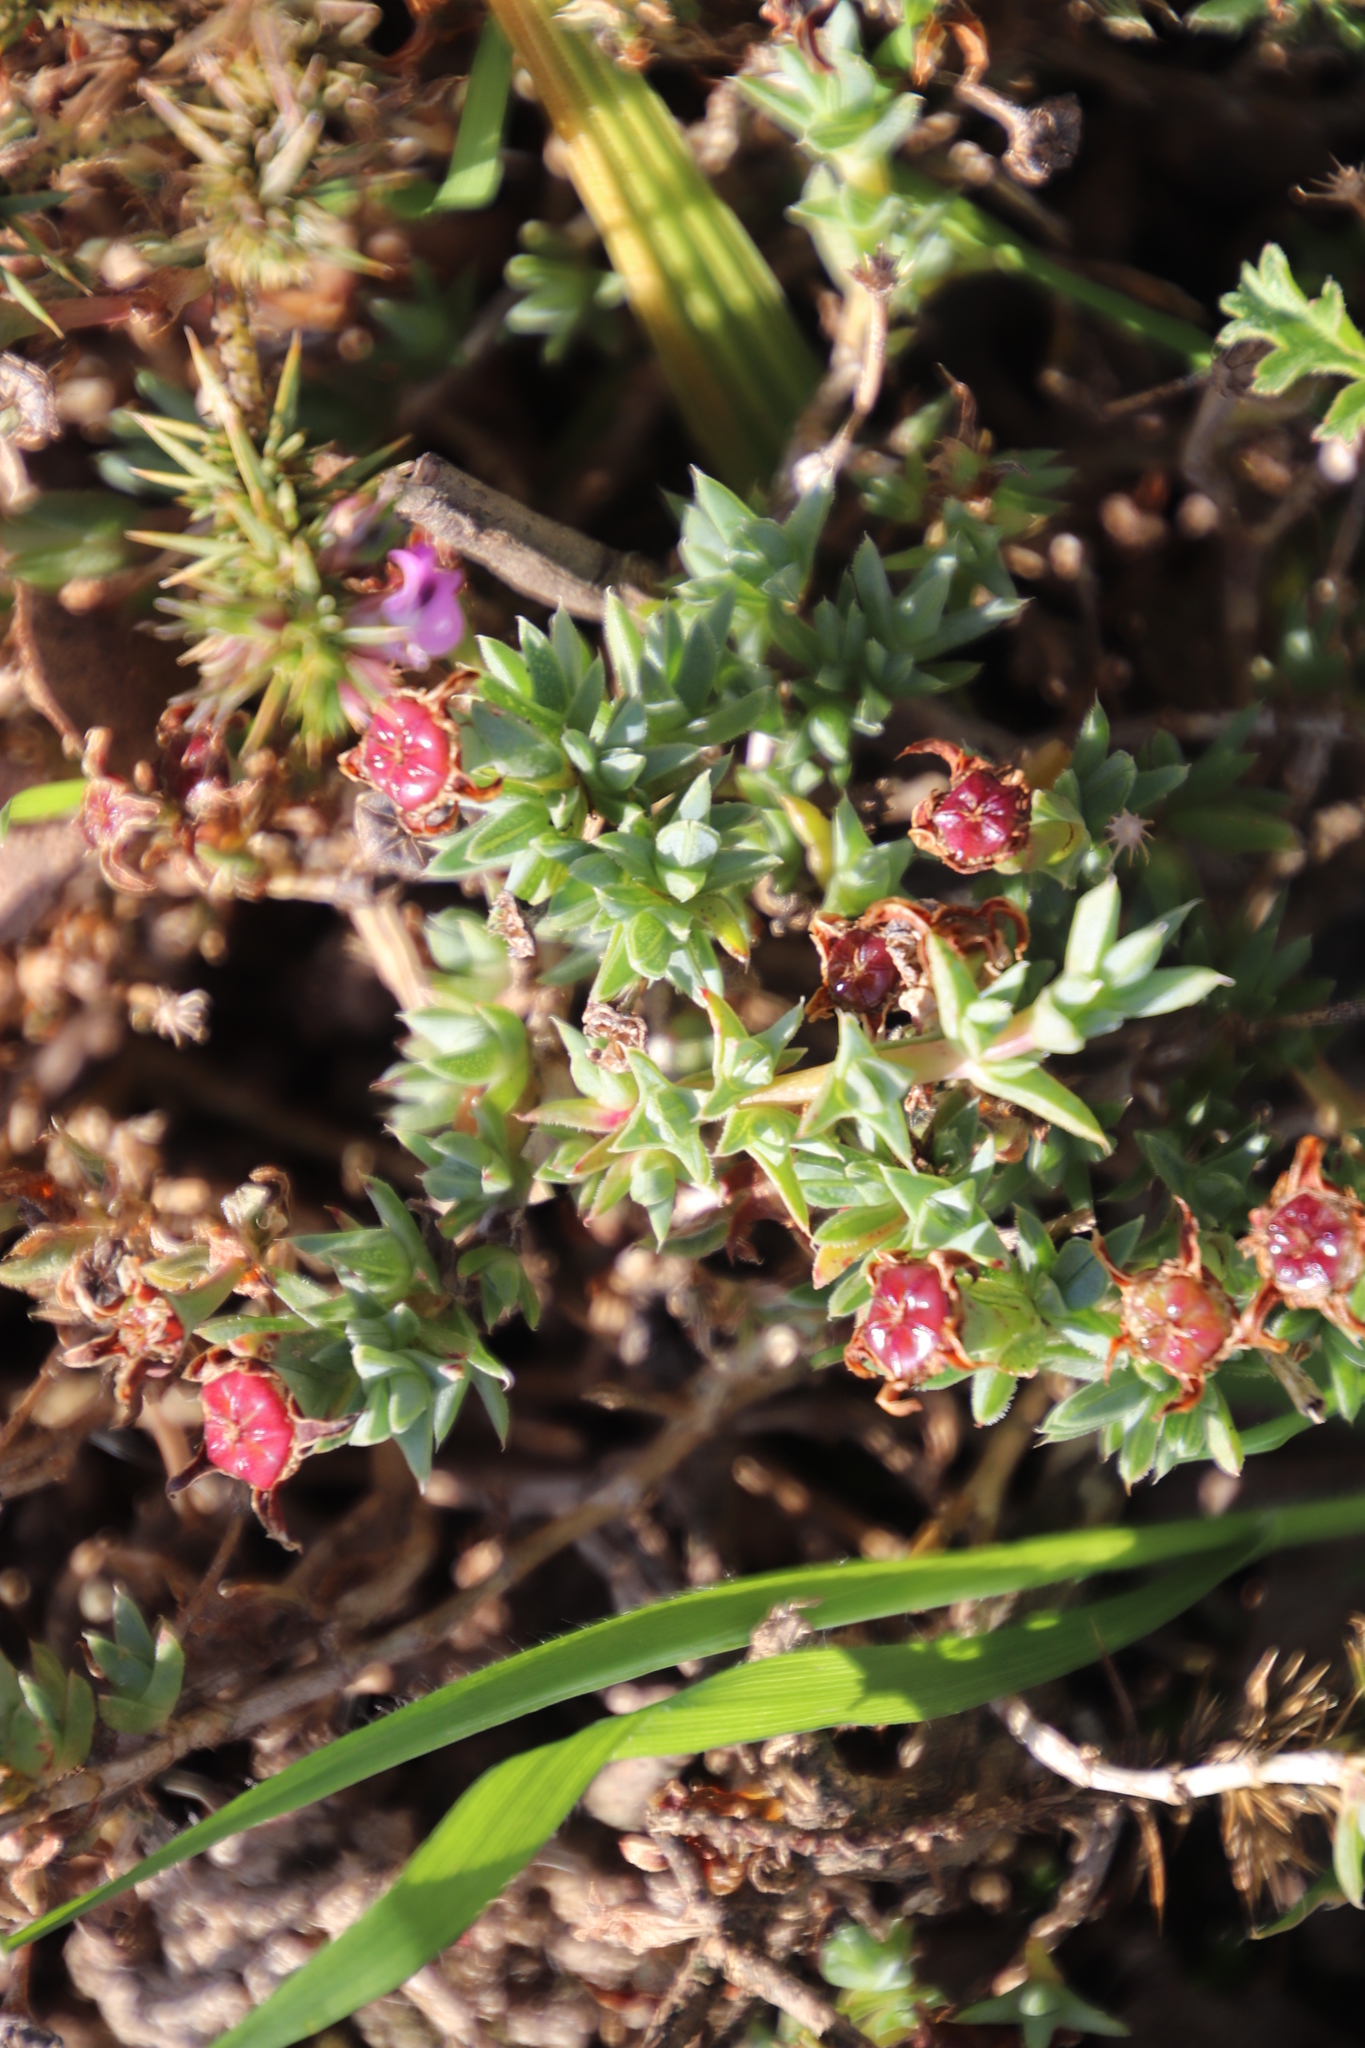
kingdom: Plantae
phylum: Tracheophyta
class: Magnoliopsida
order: Caryophyllales
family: Aizoaceae
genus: Antimima
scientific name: Antimima aristulata
